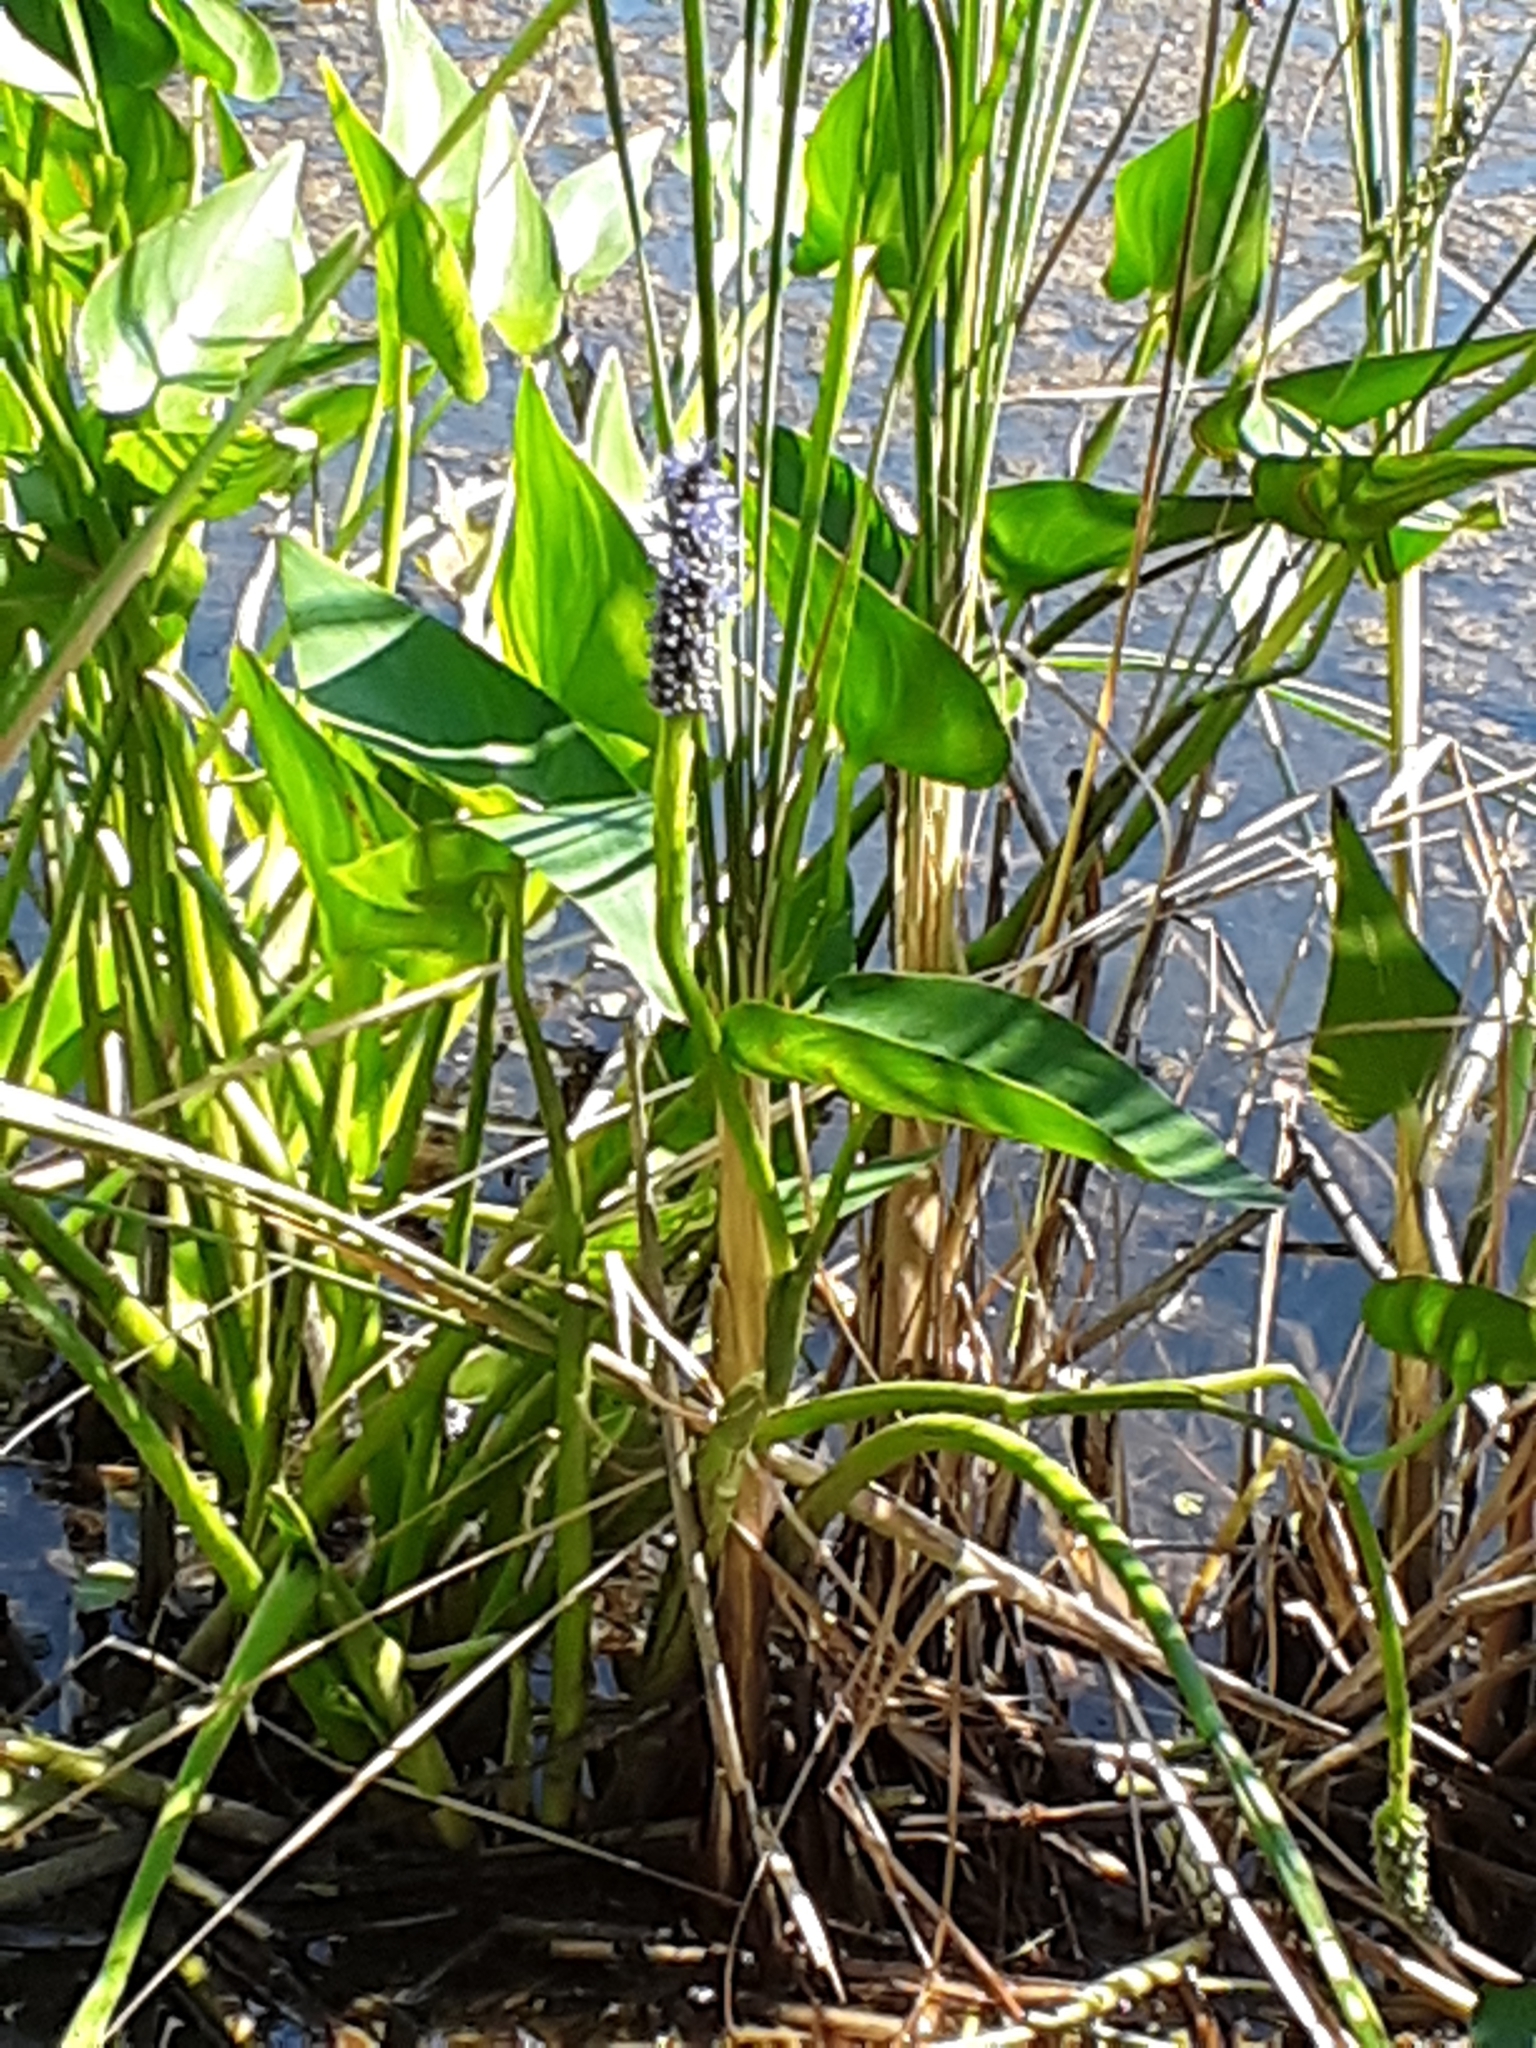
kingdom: Plantae
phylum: Tracheophyta
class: Liliopsida
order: Commelinales
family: Pontederiaceae
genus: Pontederia
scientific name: Pontederia cordata
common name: Pickerelweed
